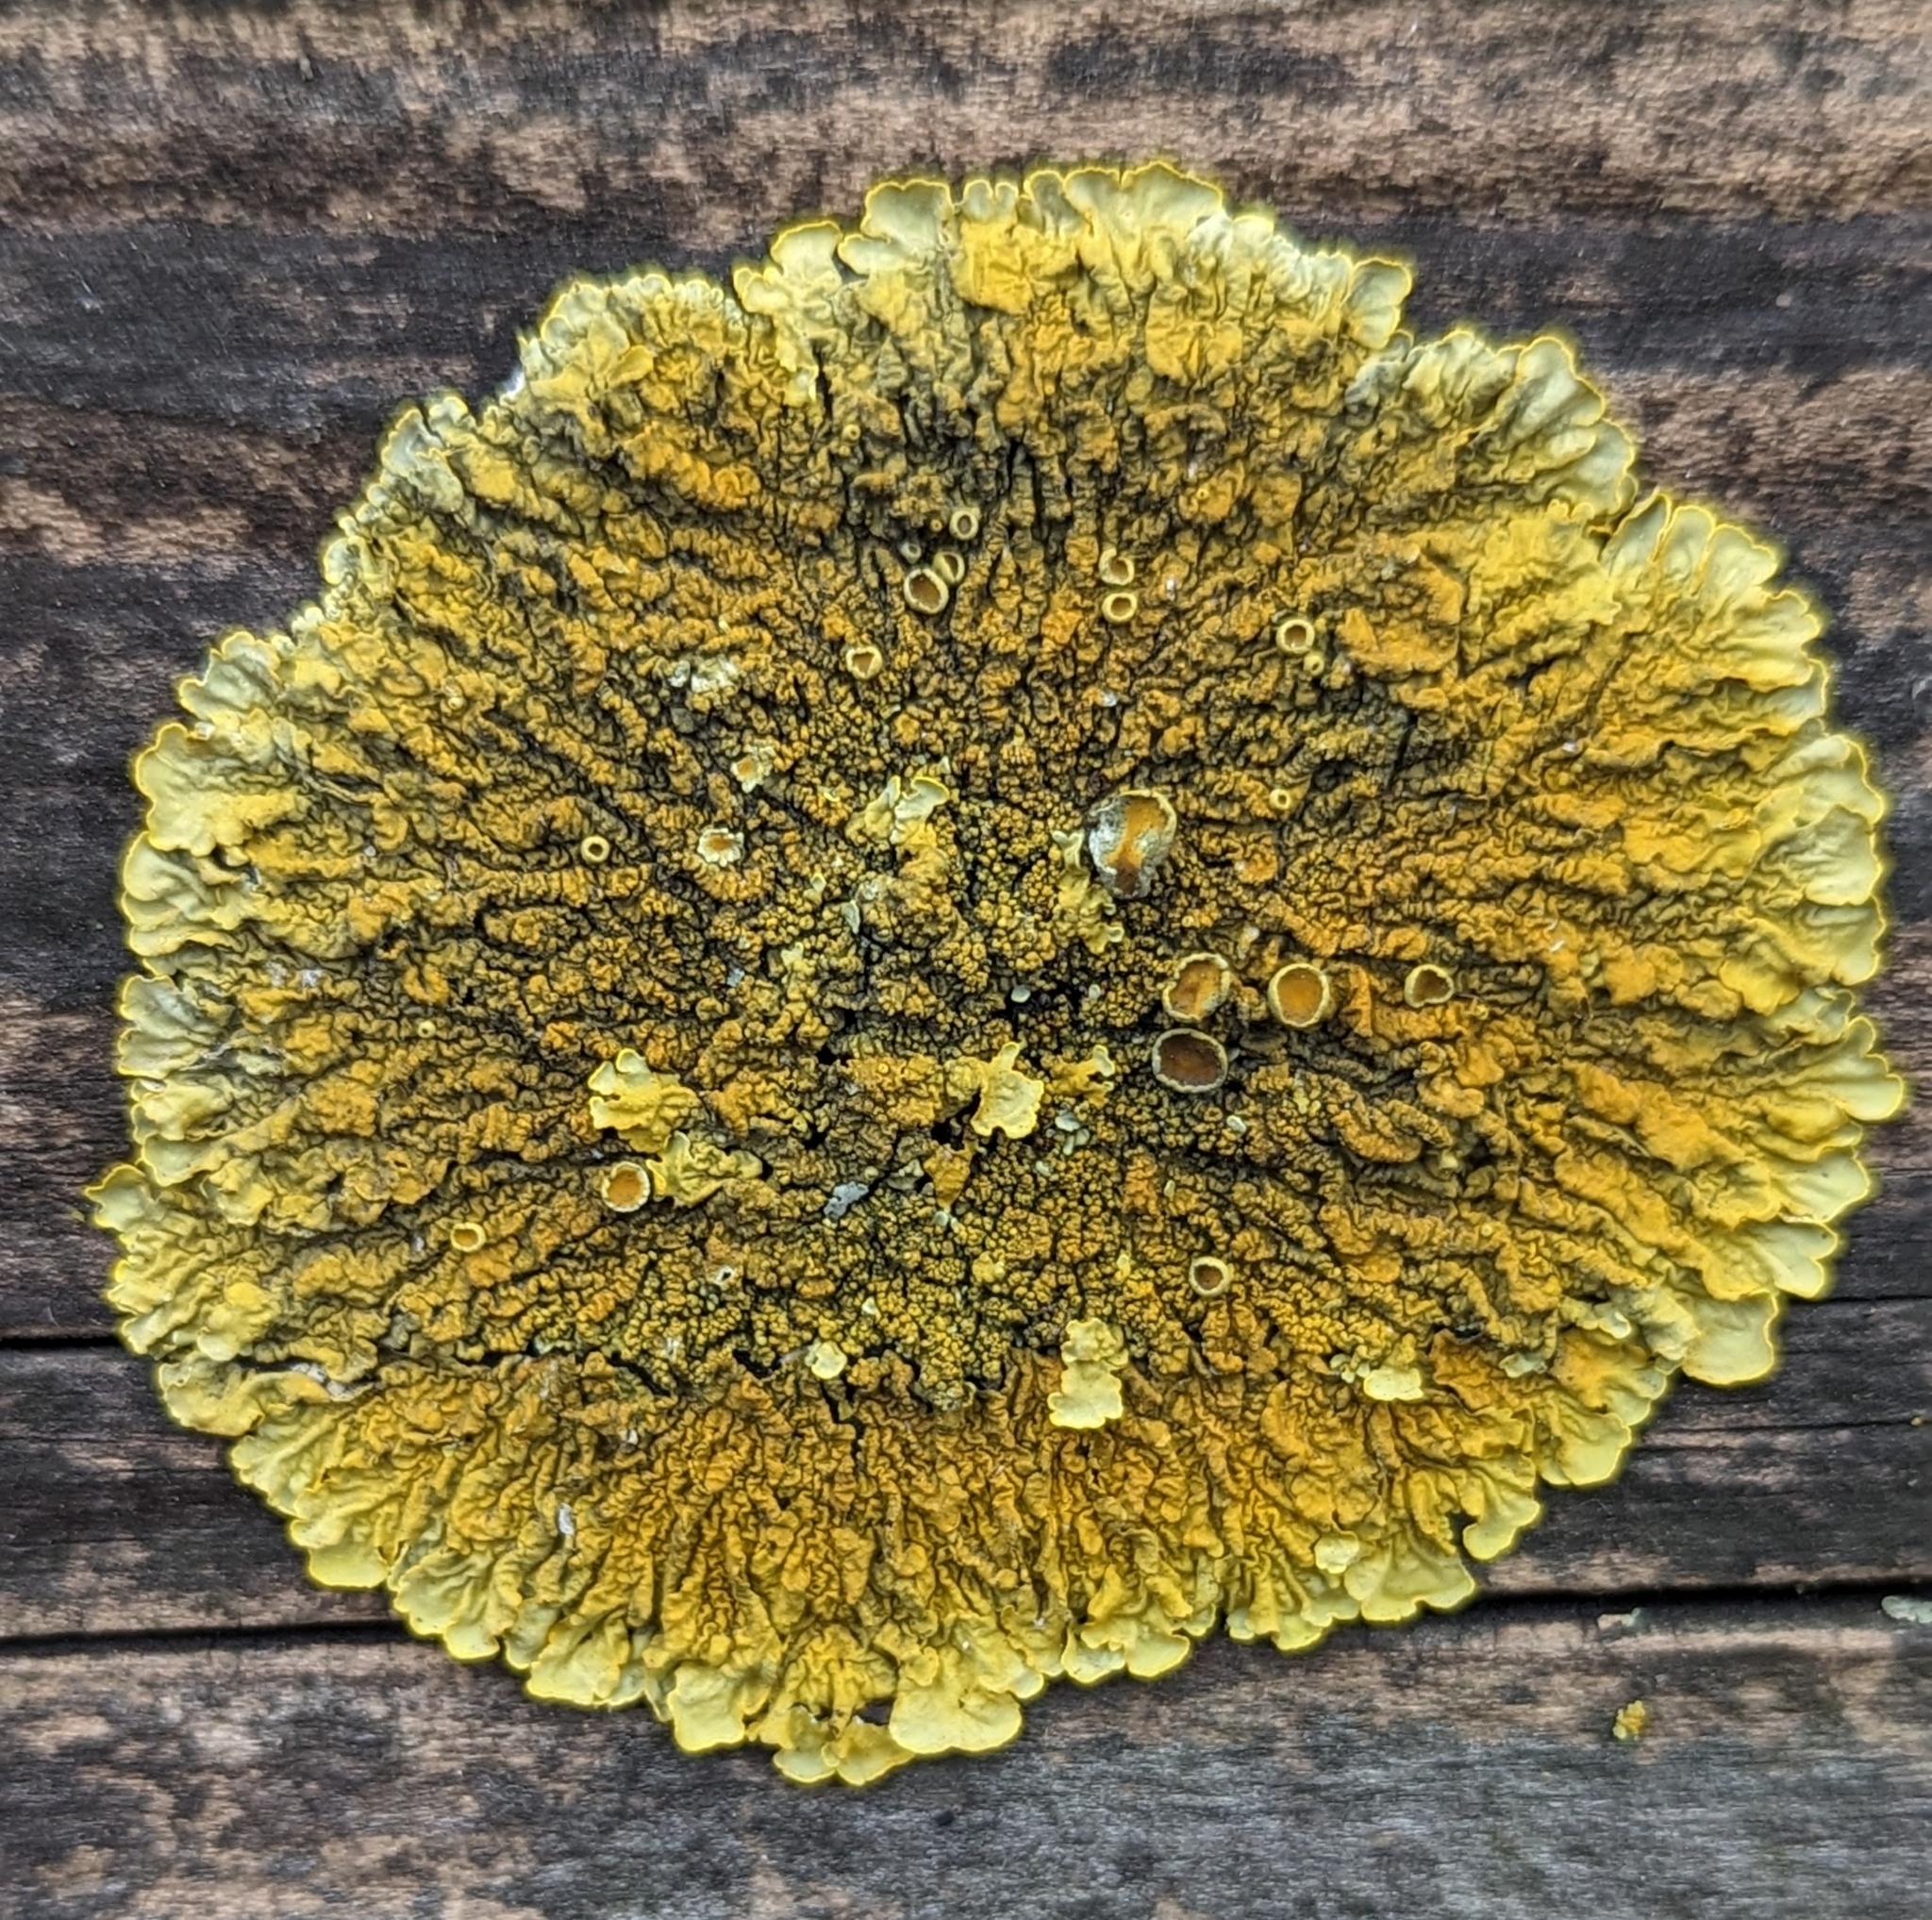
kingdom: Fungi
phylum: Ascomycota
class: Lecanoromycetes
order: Teloschistales
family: Teloschistaceae
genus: Xanthoria
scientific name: Xanthoria calcicola
